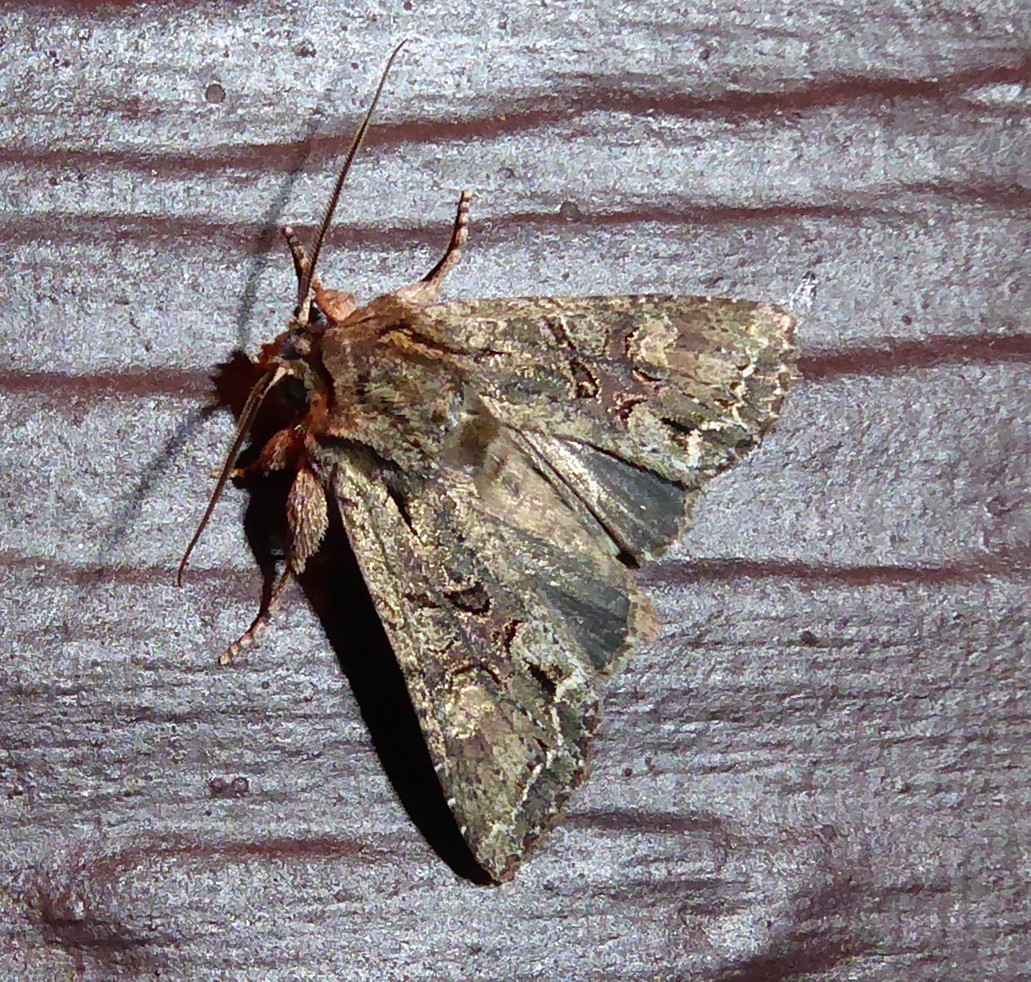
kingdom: Animalia
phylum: Arthropoda
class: Insecta
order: Lepidoptera
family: Noctuidae
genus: Ichneutica
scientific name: Ichneutica mutans
